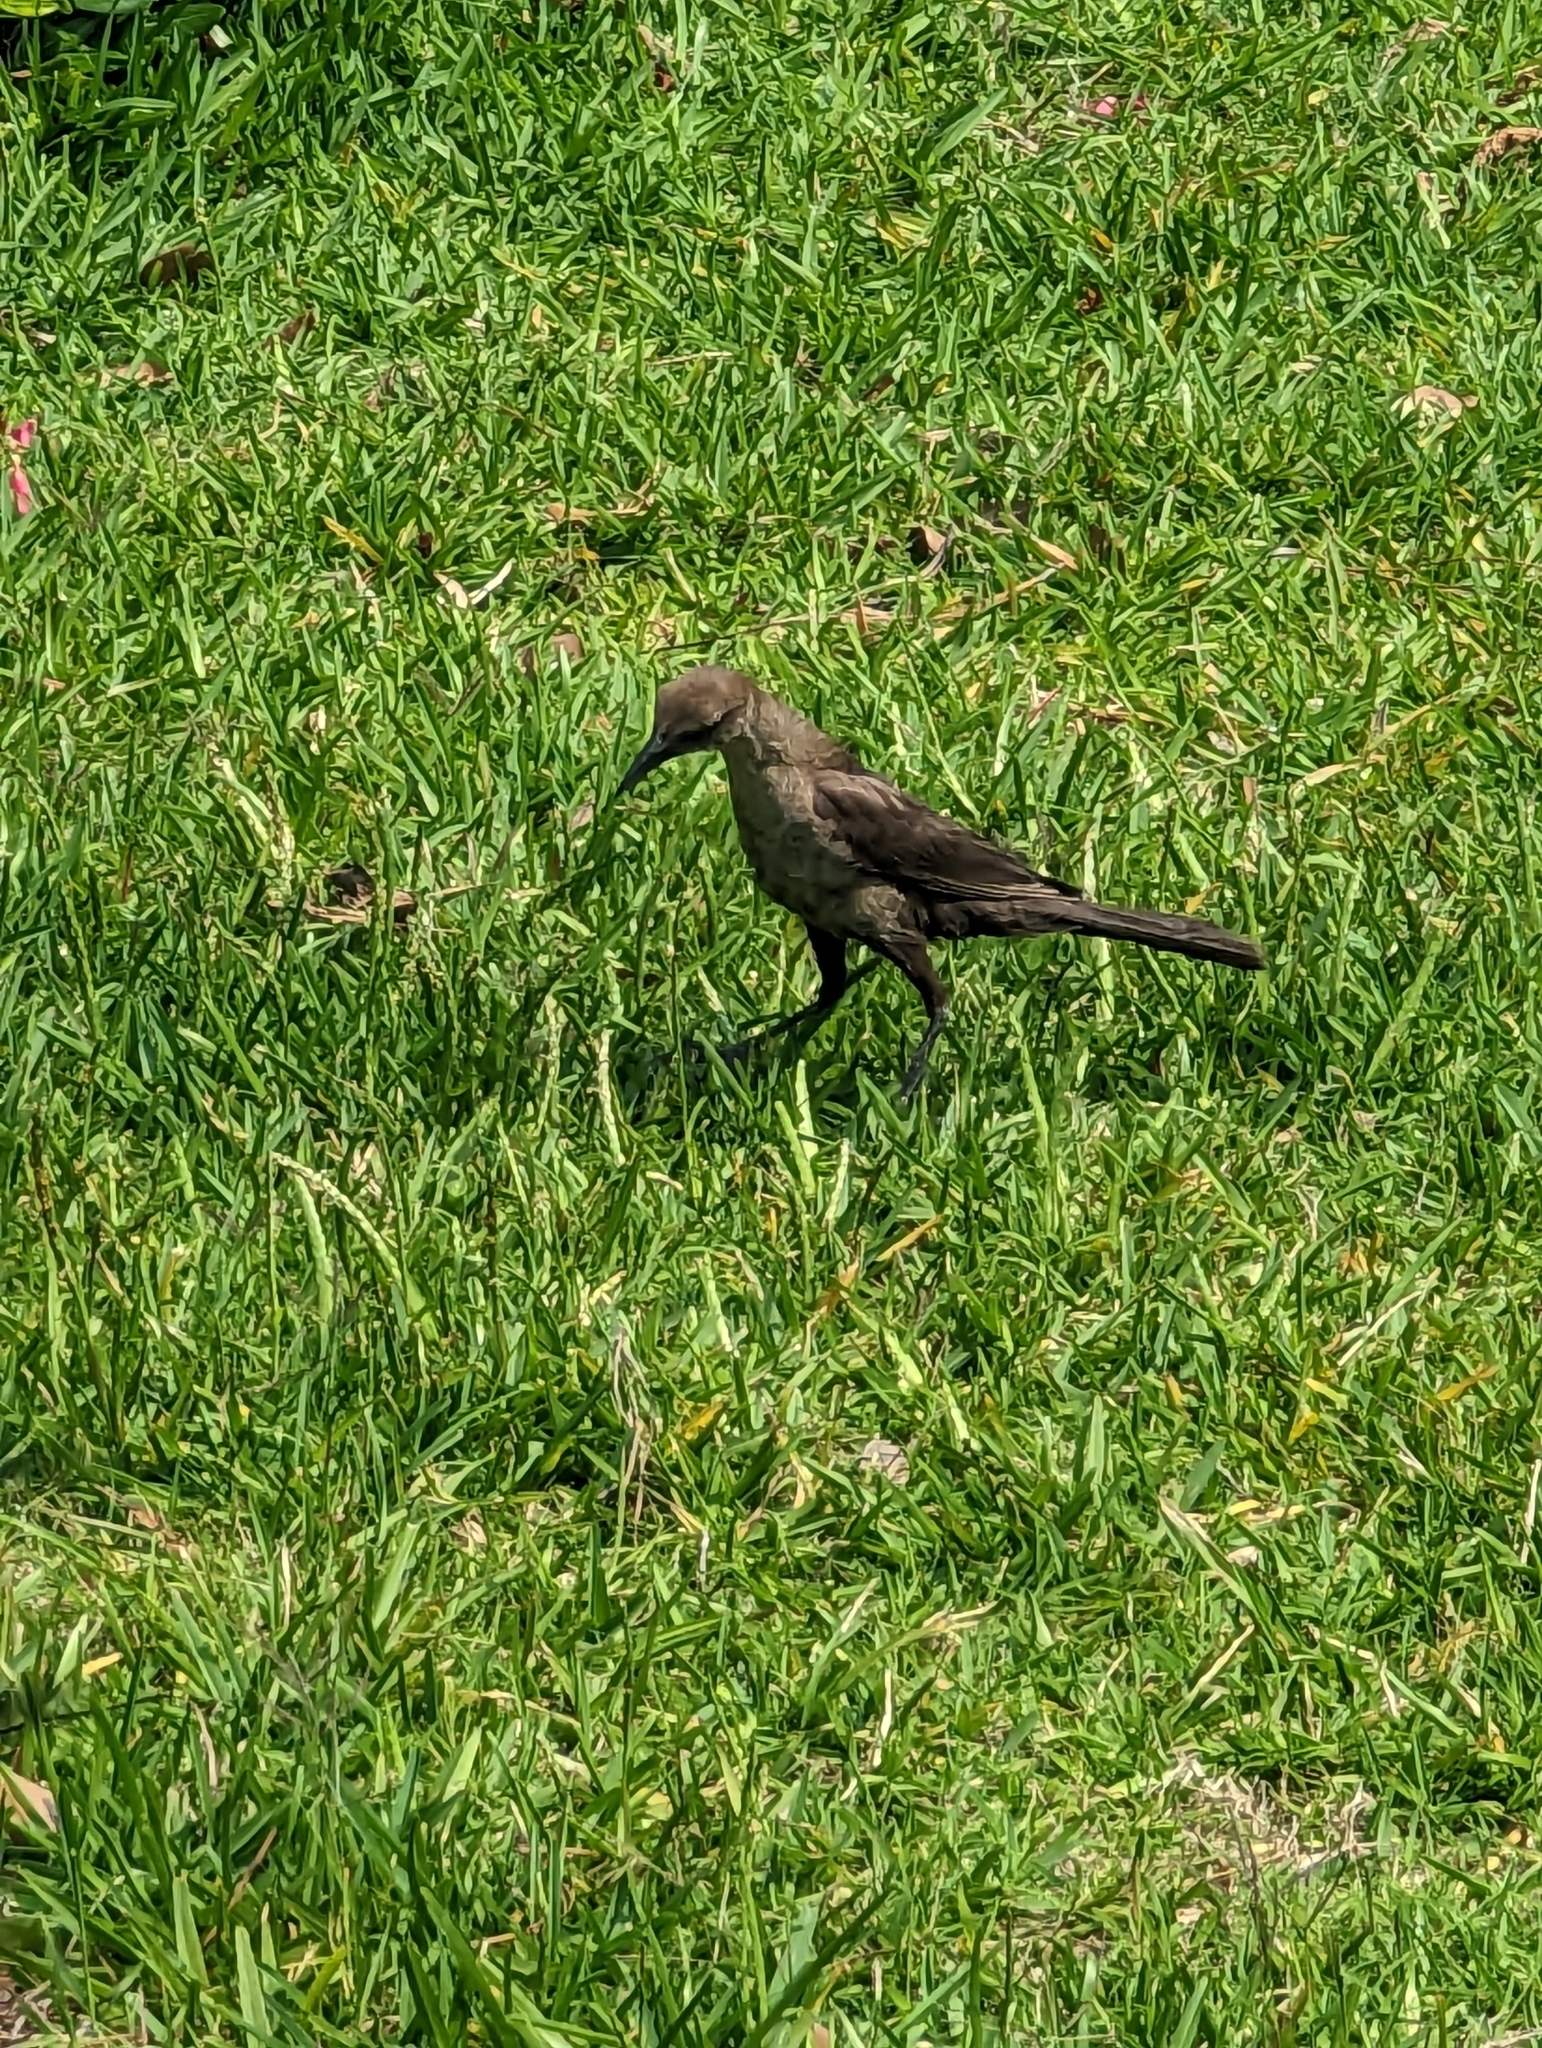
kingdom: Animalia
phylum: Chordata
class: Aves
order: Passeriformes
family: Icteridae
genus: Quiscalus
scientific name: Quiscalus major
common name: Boat-tailed grackle
